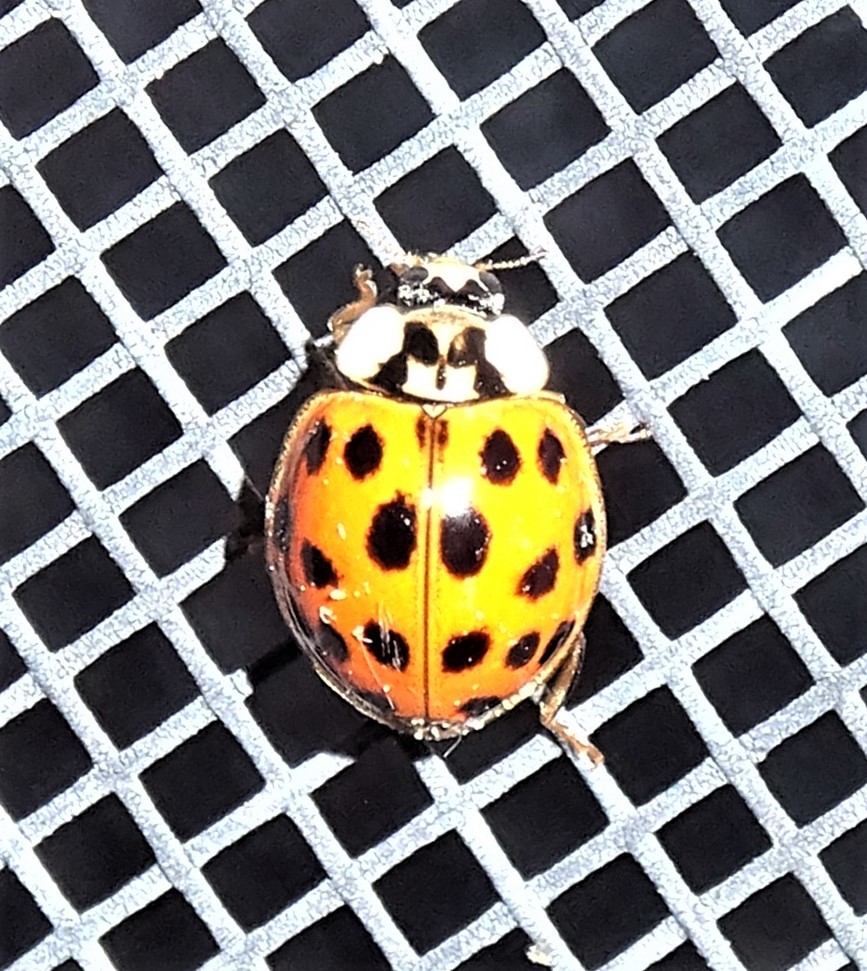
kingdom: Animalia
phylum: Arthropoda
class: Insecta
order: Coleoptera
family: Coccinellidae
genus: Harmonia
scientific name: Harmonia axyridis
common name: Harlequin ladybird
